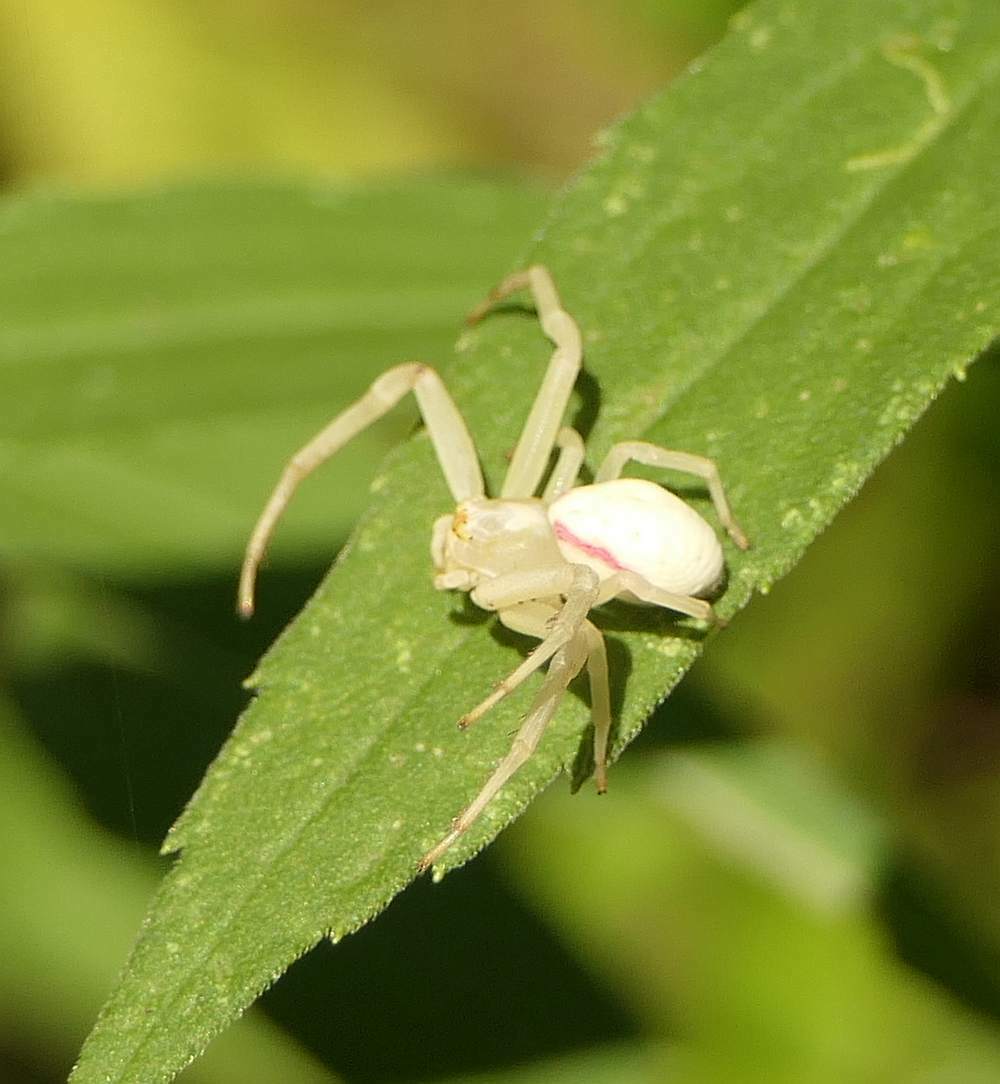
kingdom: Animalia
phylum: Arthropoda
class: Arachnida
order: Araneae
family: Thomisidae
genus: Misumena
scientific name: Misumena vatia
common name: Goldenrod crab spider
